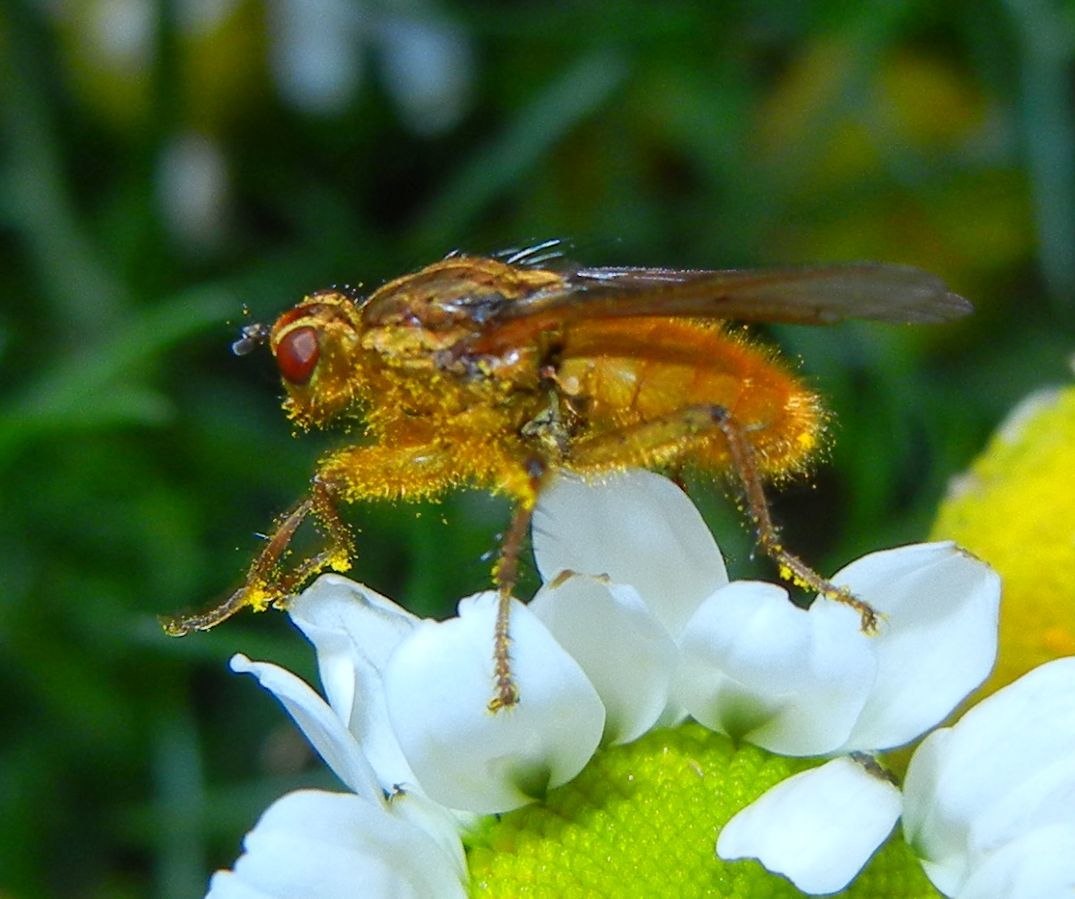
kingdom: Animalia
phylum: Arthropoda
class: Insecta
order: Diptera
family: Scathophagidae
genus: Scathophaga
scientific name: Scathophaga stercoraria
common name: Yellow dung fly
